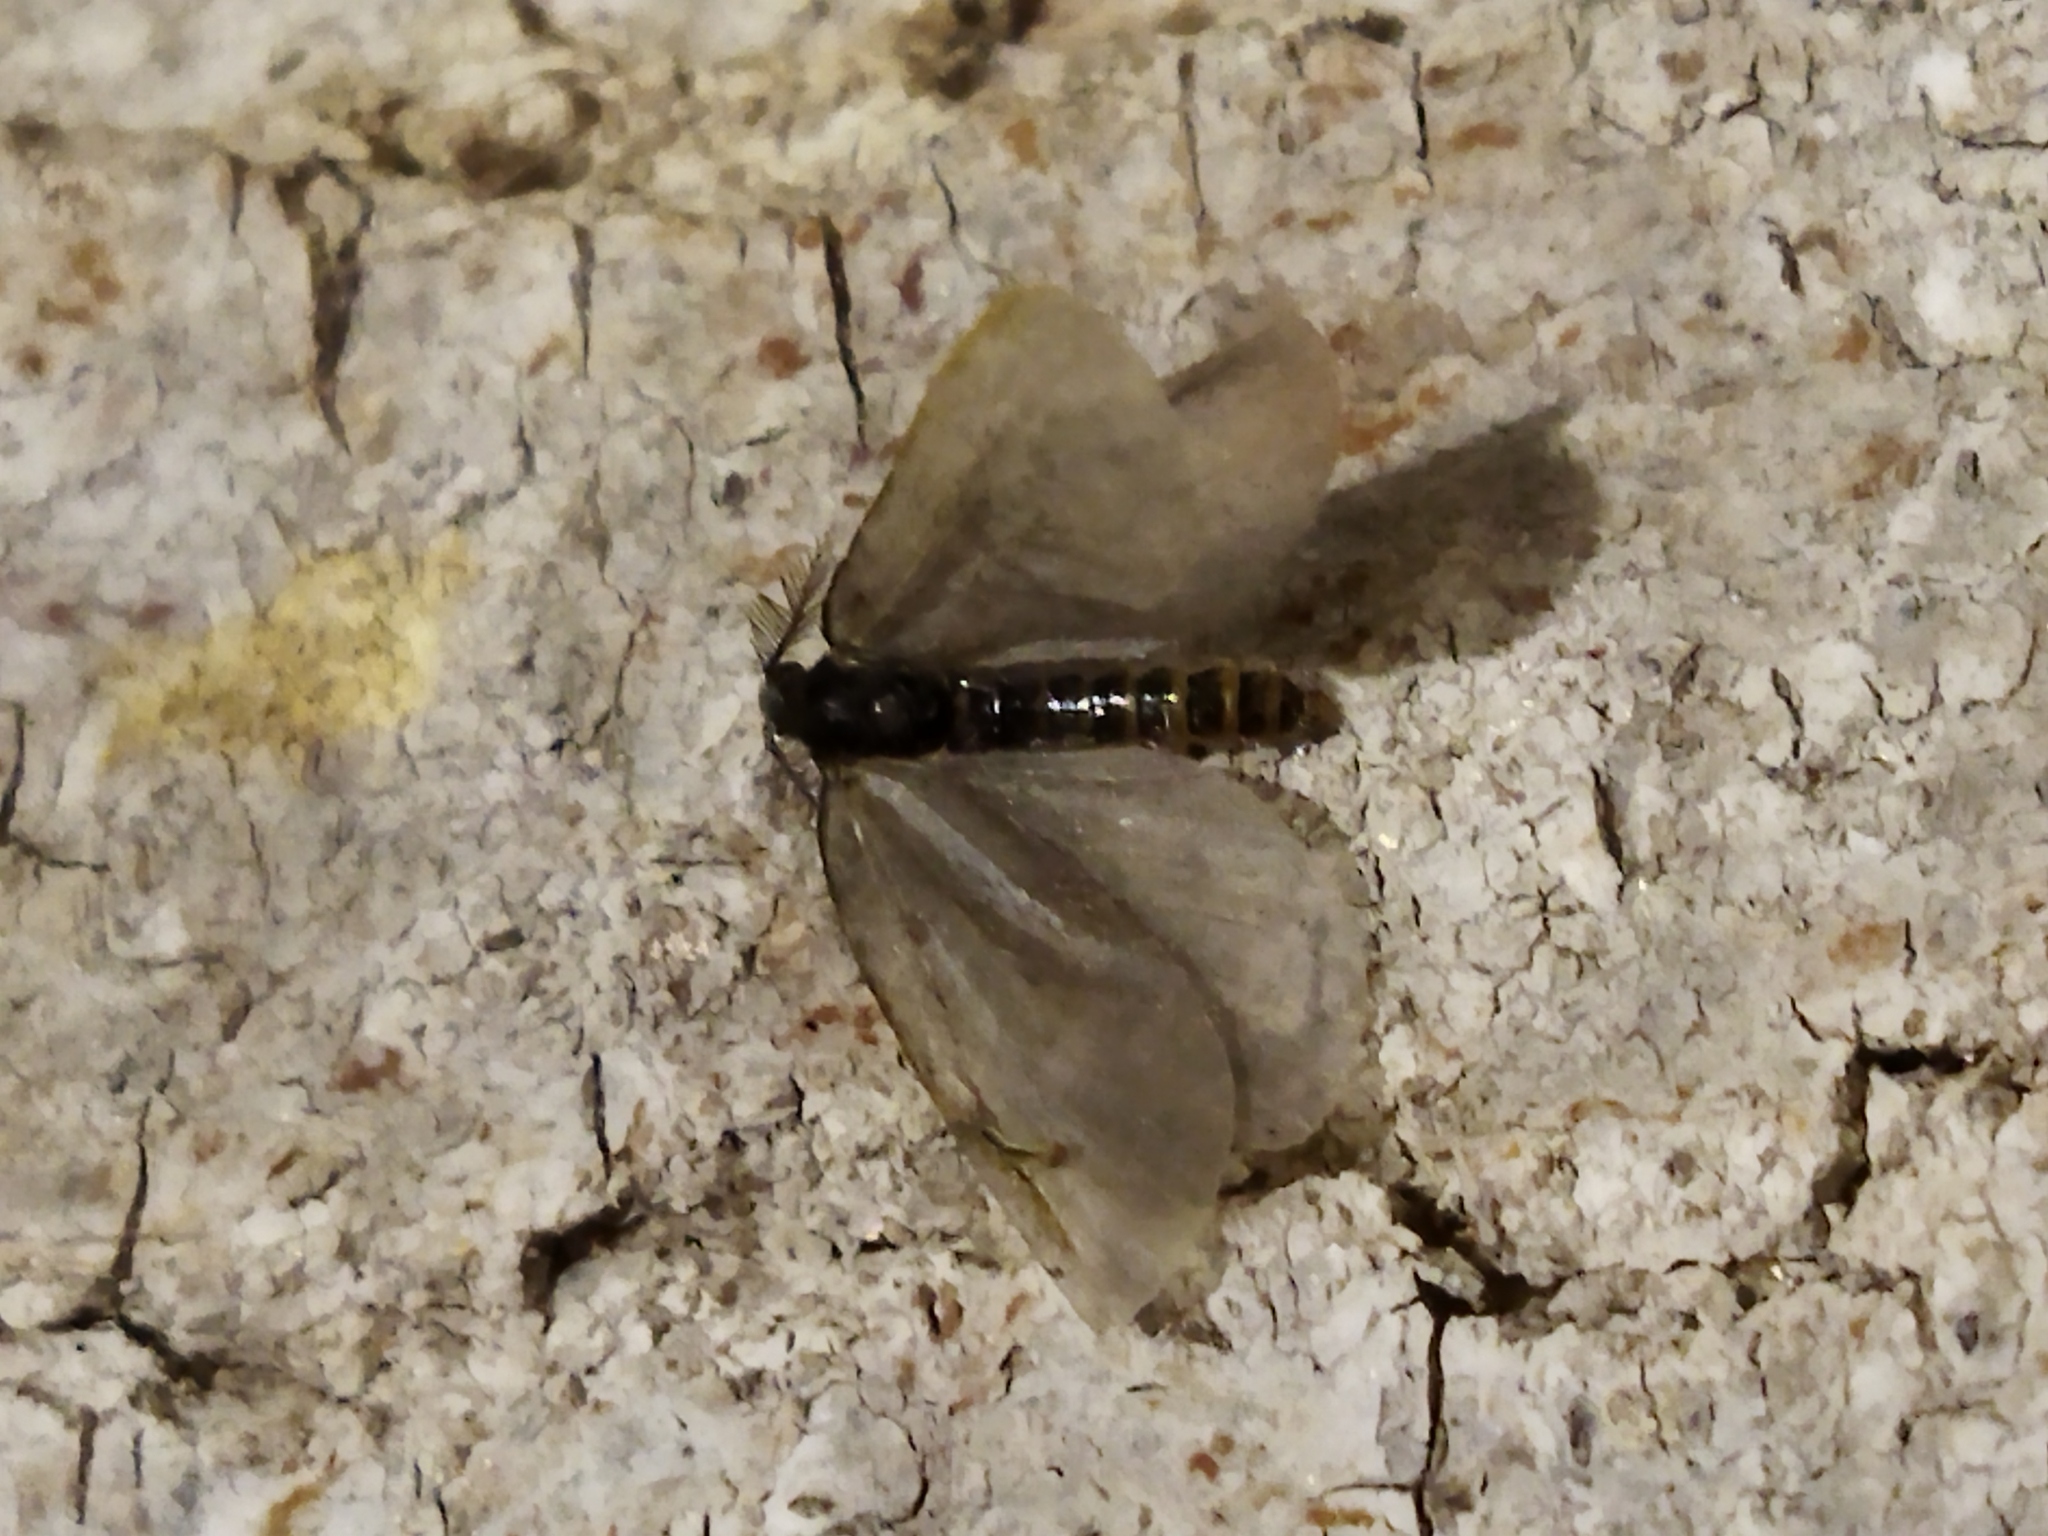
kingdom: Animalia
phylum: Arthropoda
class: Insecta
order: Lepidoptera
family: Psychidae
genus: Rebelia
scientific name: Rebelia perlucidella
